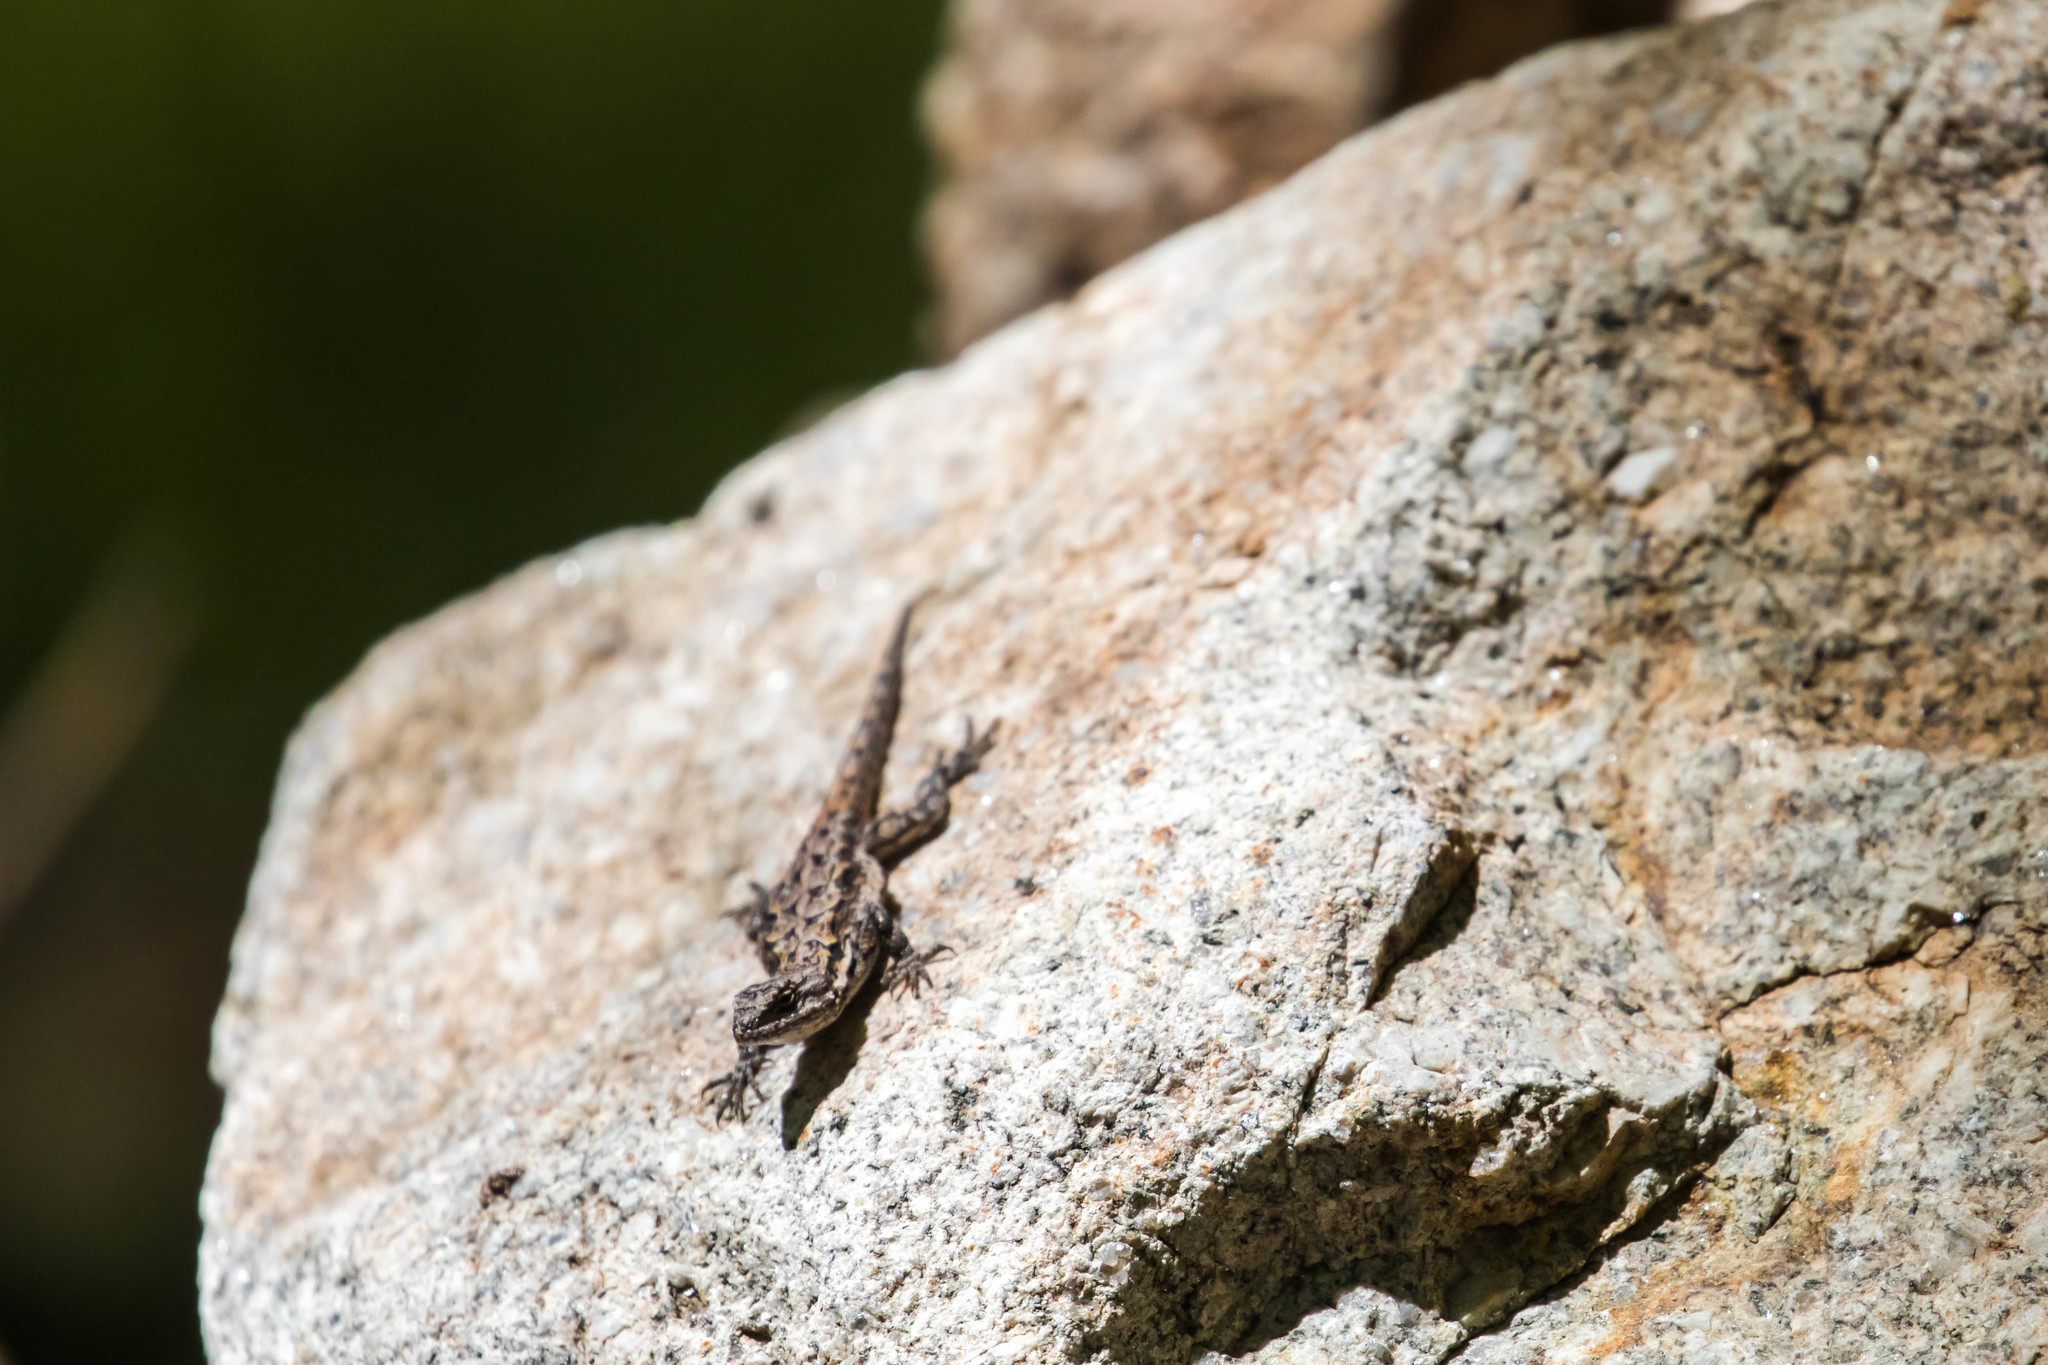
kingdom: Animalia
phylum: Chordata
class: Squamata
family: Phrynosomatidae
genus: Urosaurus
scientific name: Urosaurus ornatus
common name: Ornate tree lizard
